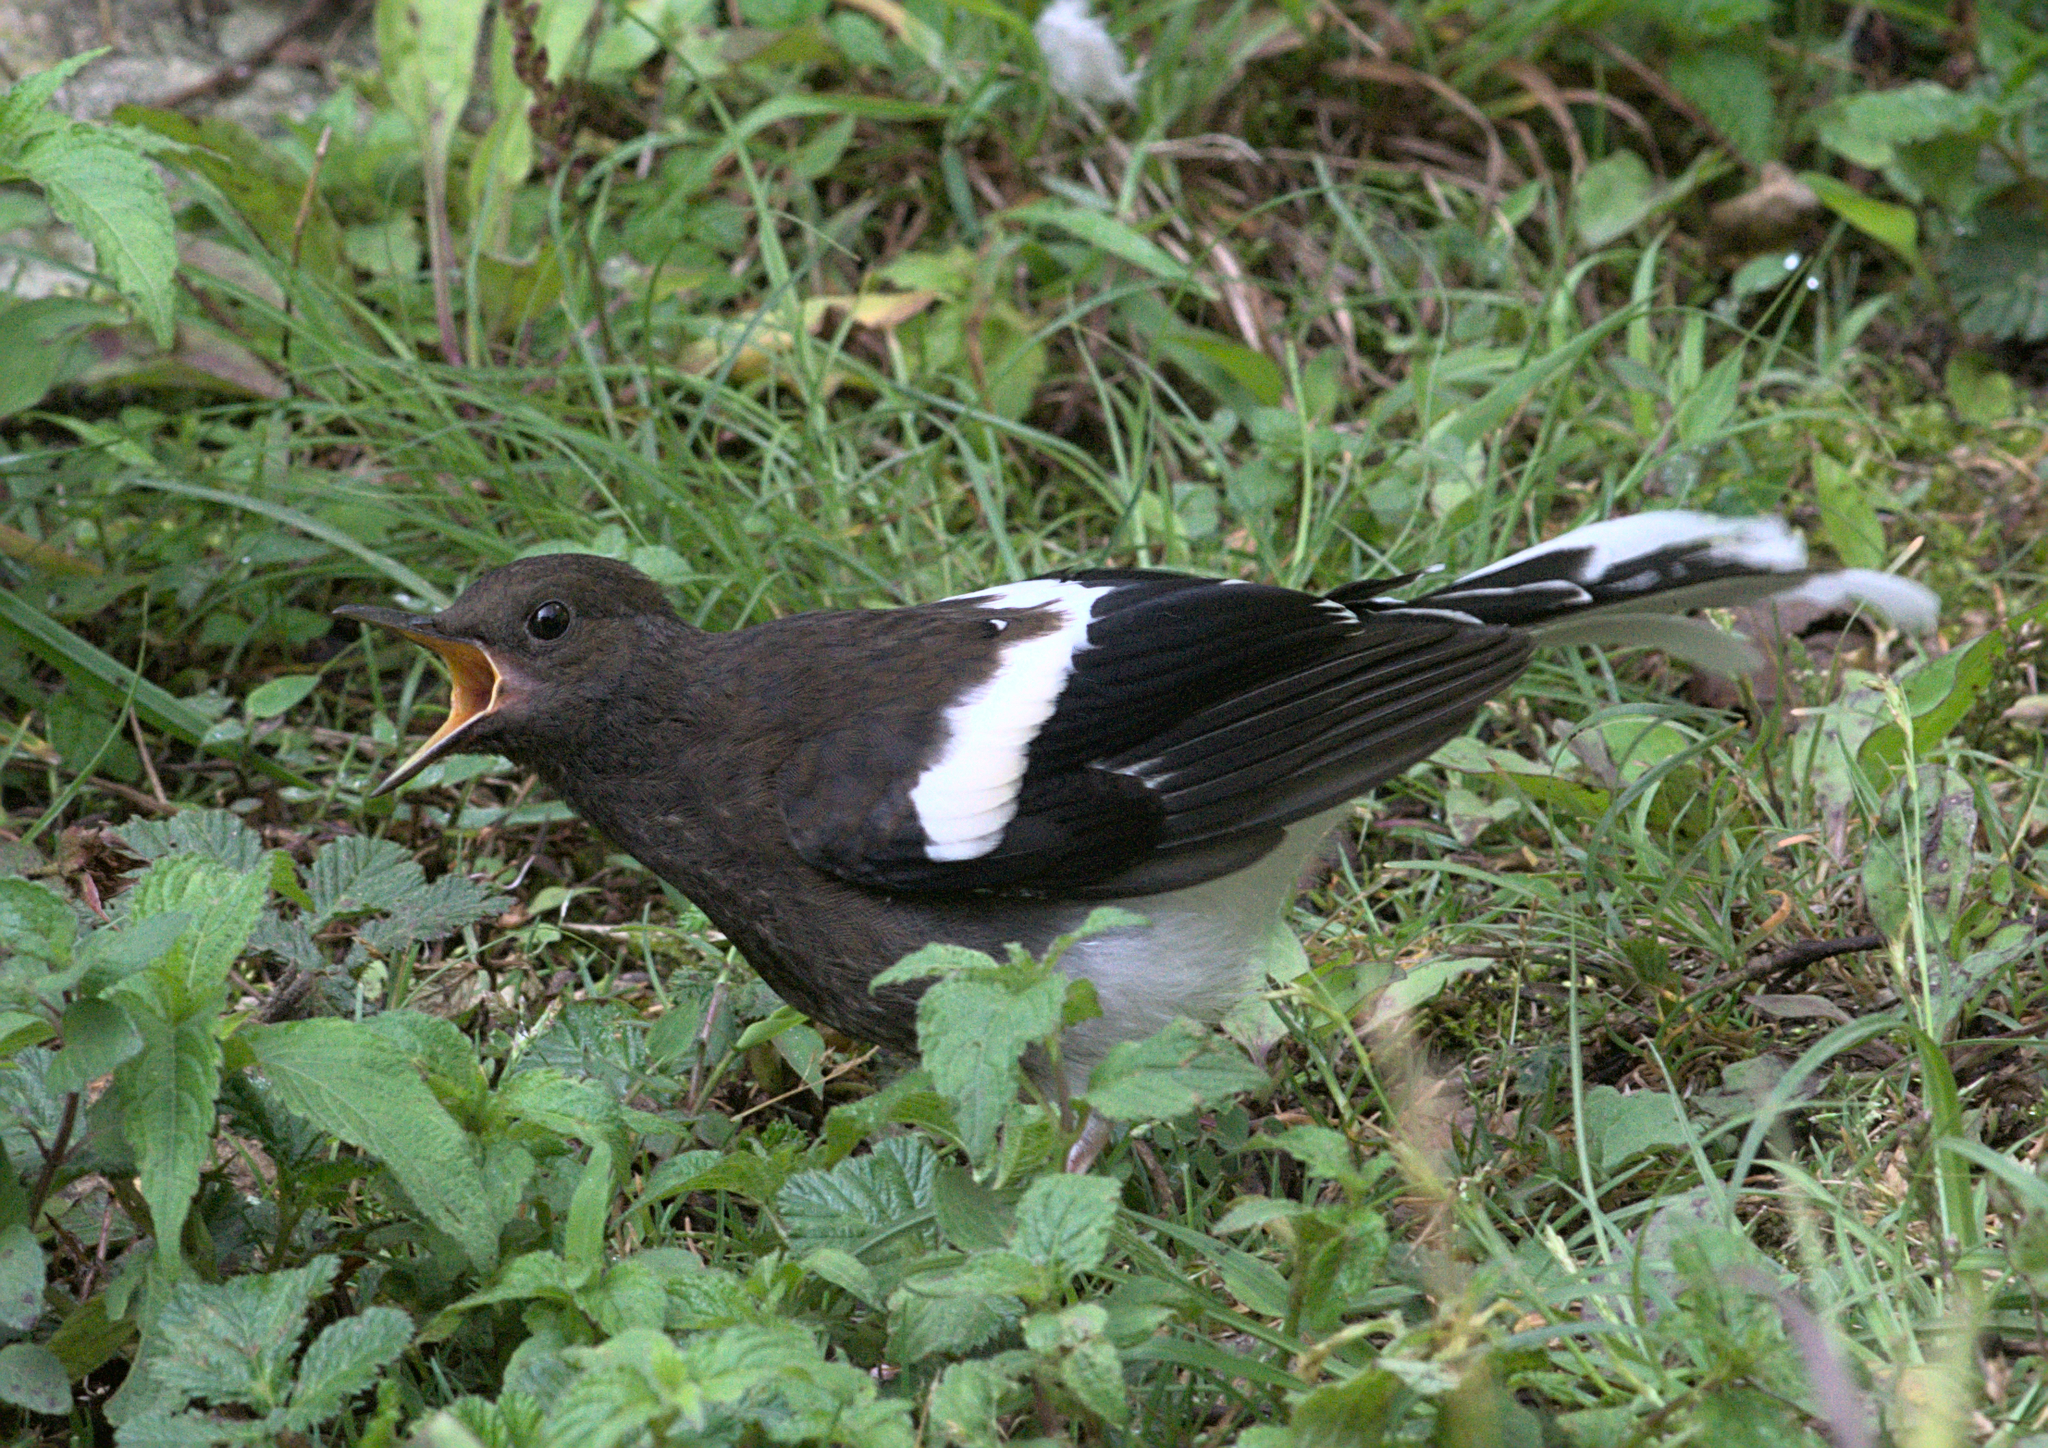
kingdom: Animalia
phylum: Chordata
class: Aves
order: Passeriformes
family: Muscicapidae
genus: Enicurus
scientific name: Enicurus maculatus
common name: Spotted forktail
